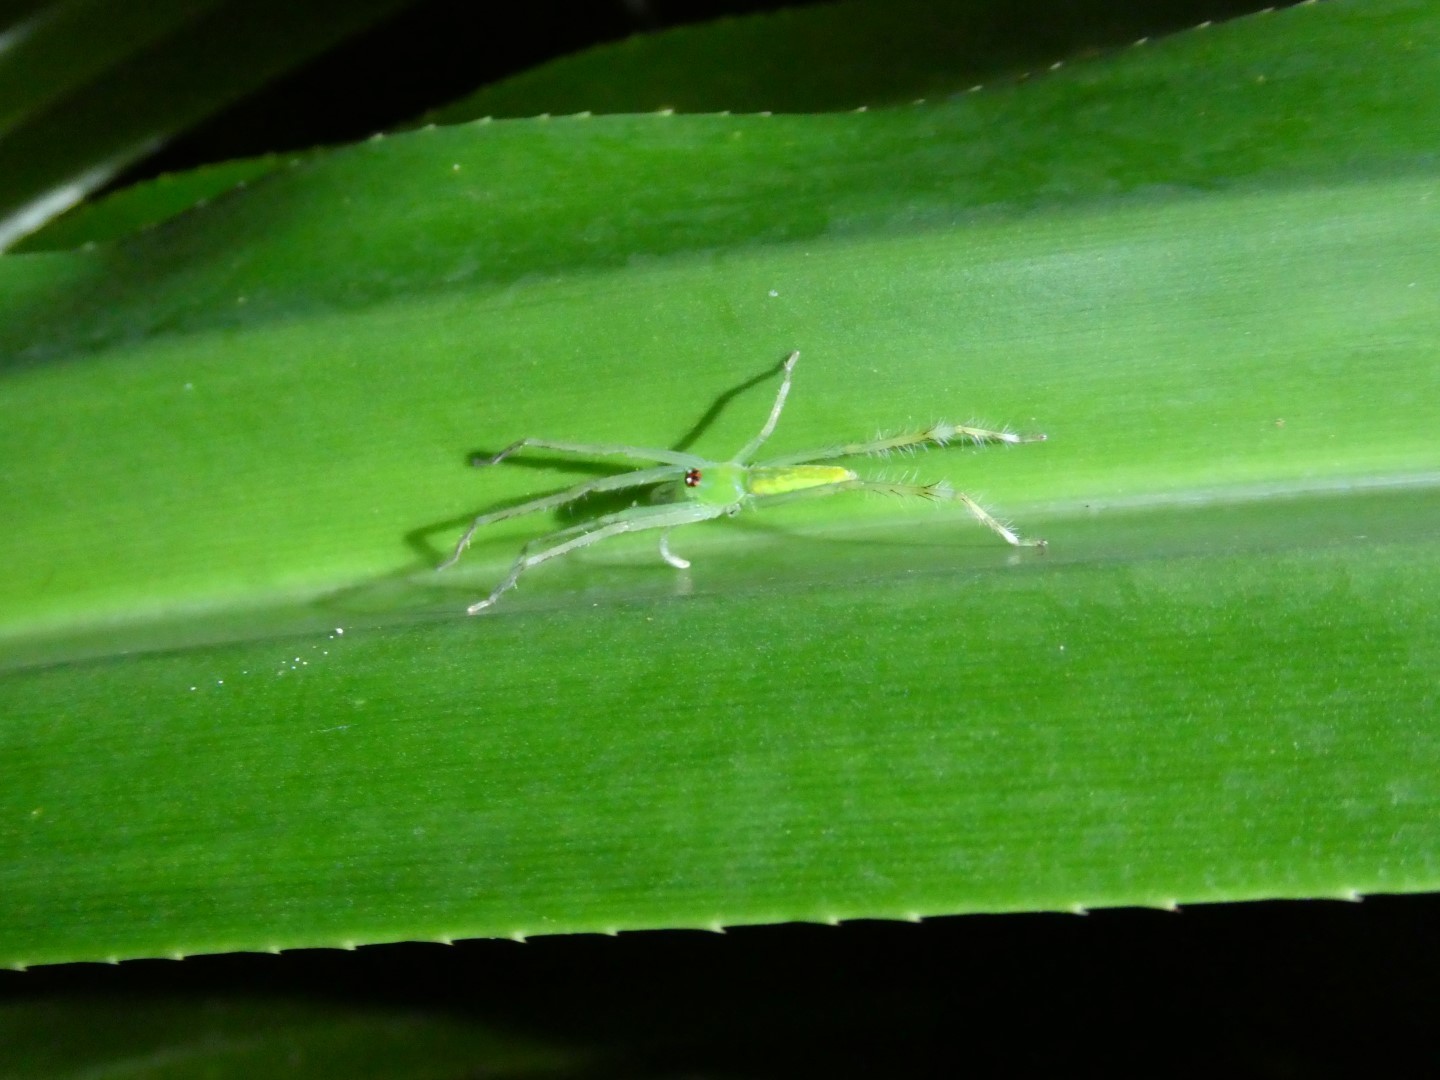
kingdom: Animalia
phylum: Arthropoda
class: Arachnida
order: Araneae
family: Sparassidae
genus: Clastes
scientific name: Clastes
